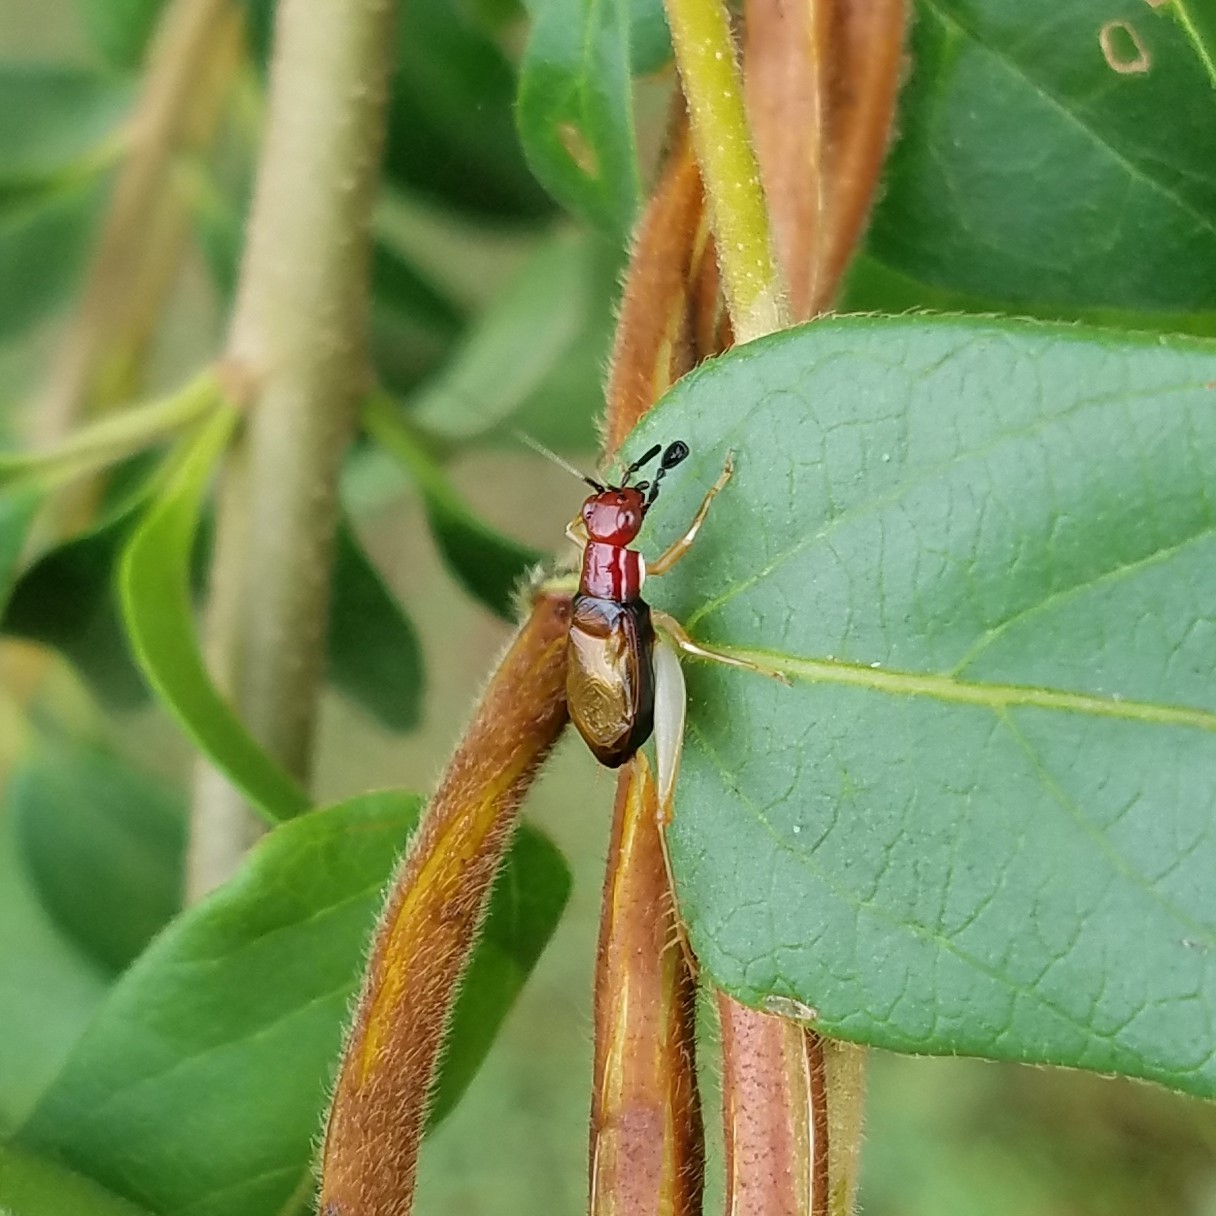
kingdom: Animalia
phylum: Arthropoda
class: Insecta
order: Orthoptera
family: Trigonidiidae
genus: Phyllopalpus
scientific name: Phyllopalpus pulchellus
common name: Handsome trig
